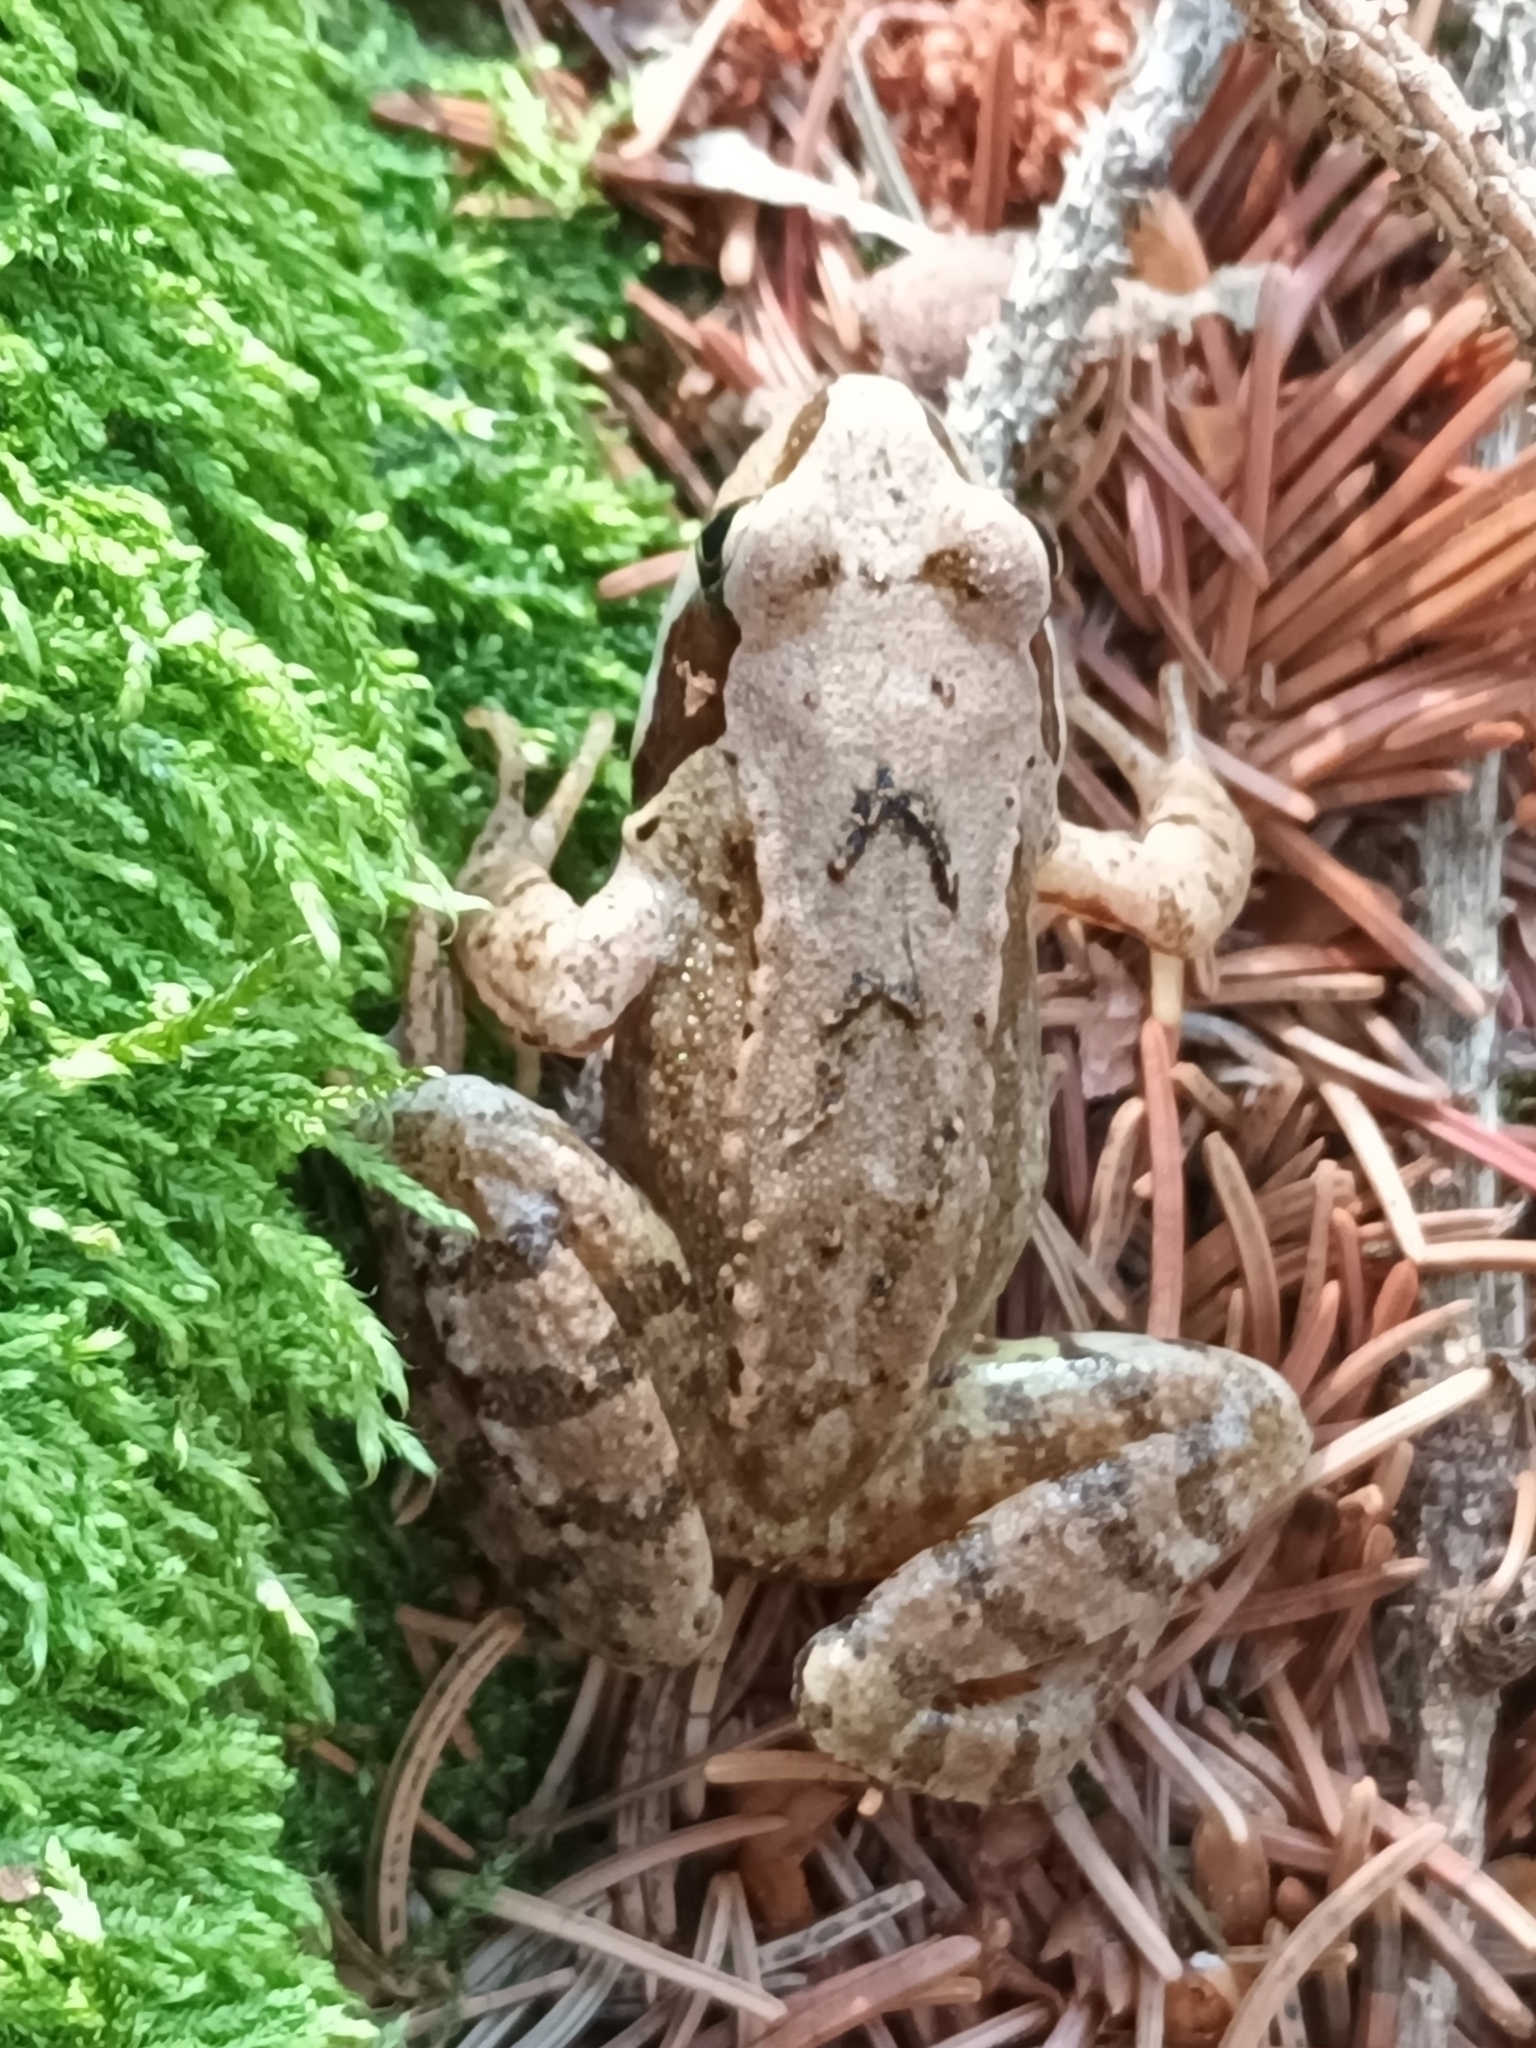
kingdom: Animalia
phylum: Chordata
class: Amphibia
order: Anura
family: Ranidae
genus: Rana
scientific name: Rana temporaria
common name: Common frog
